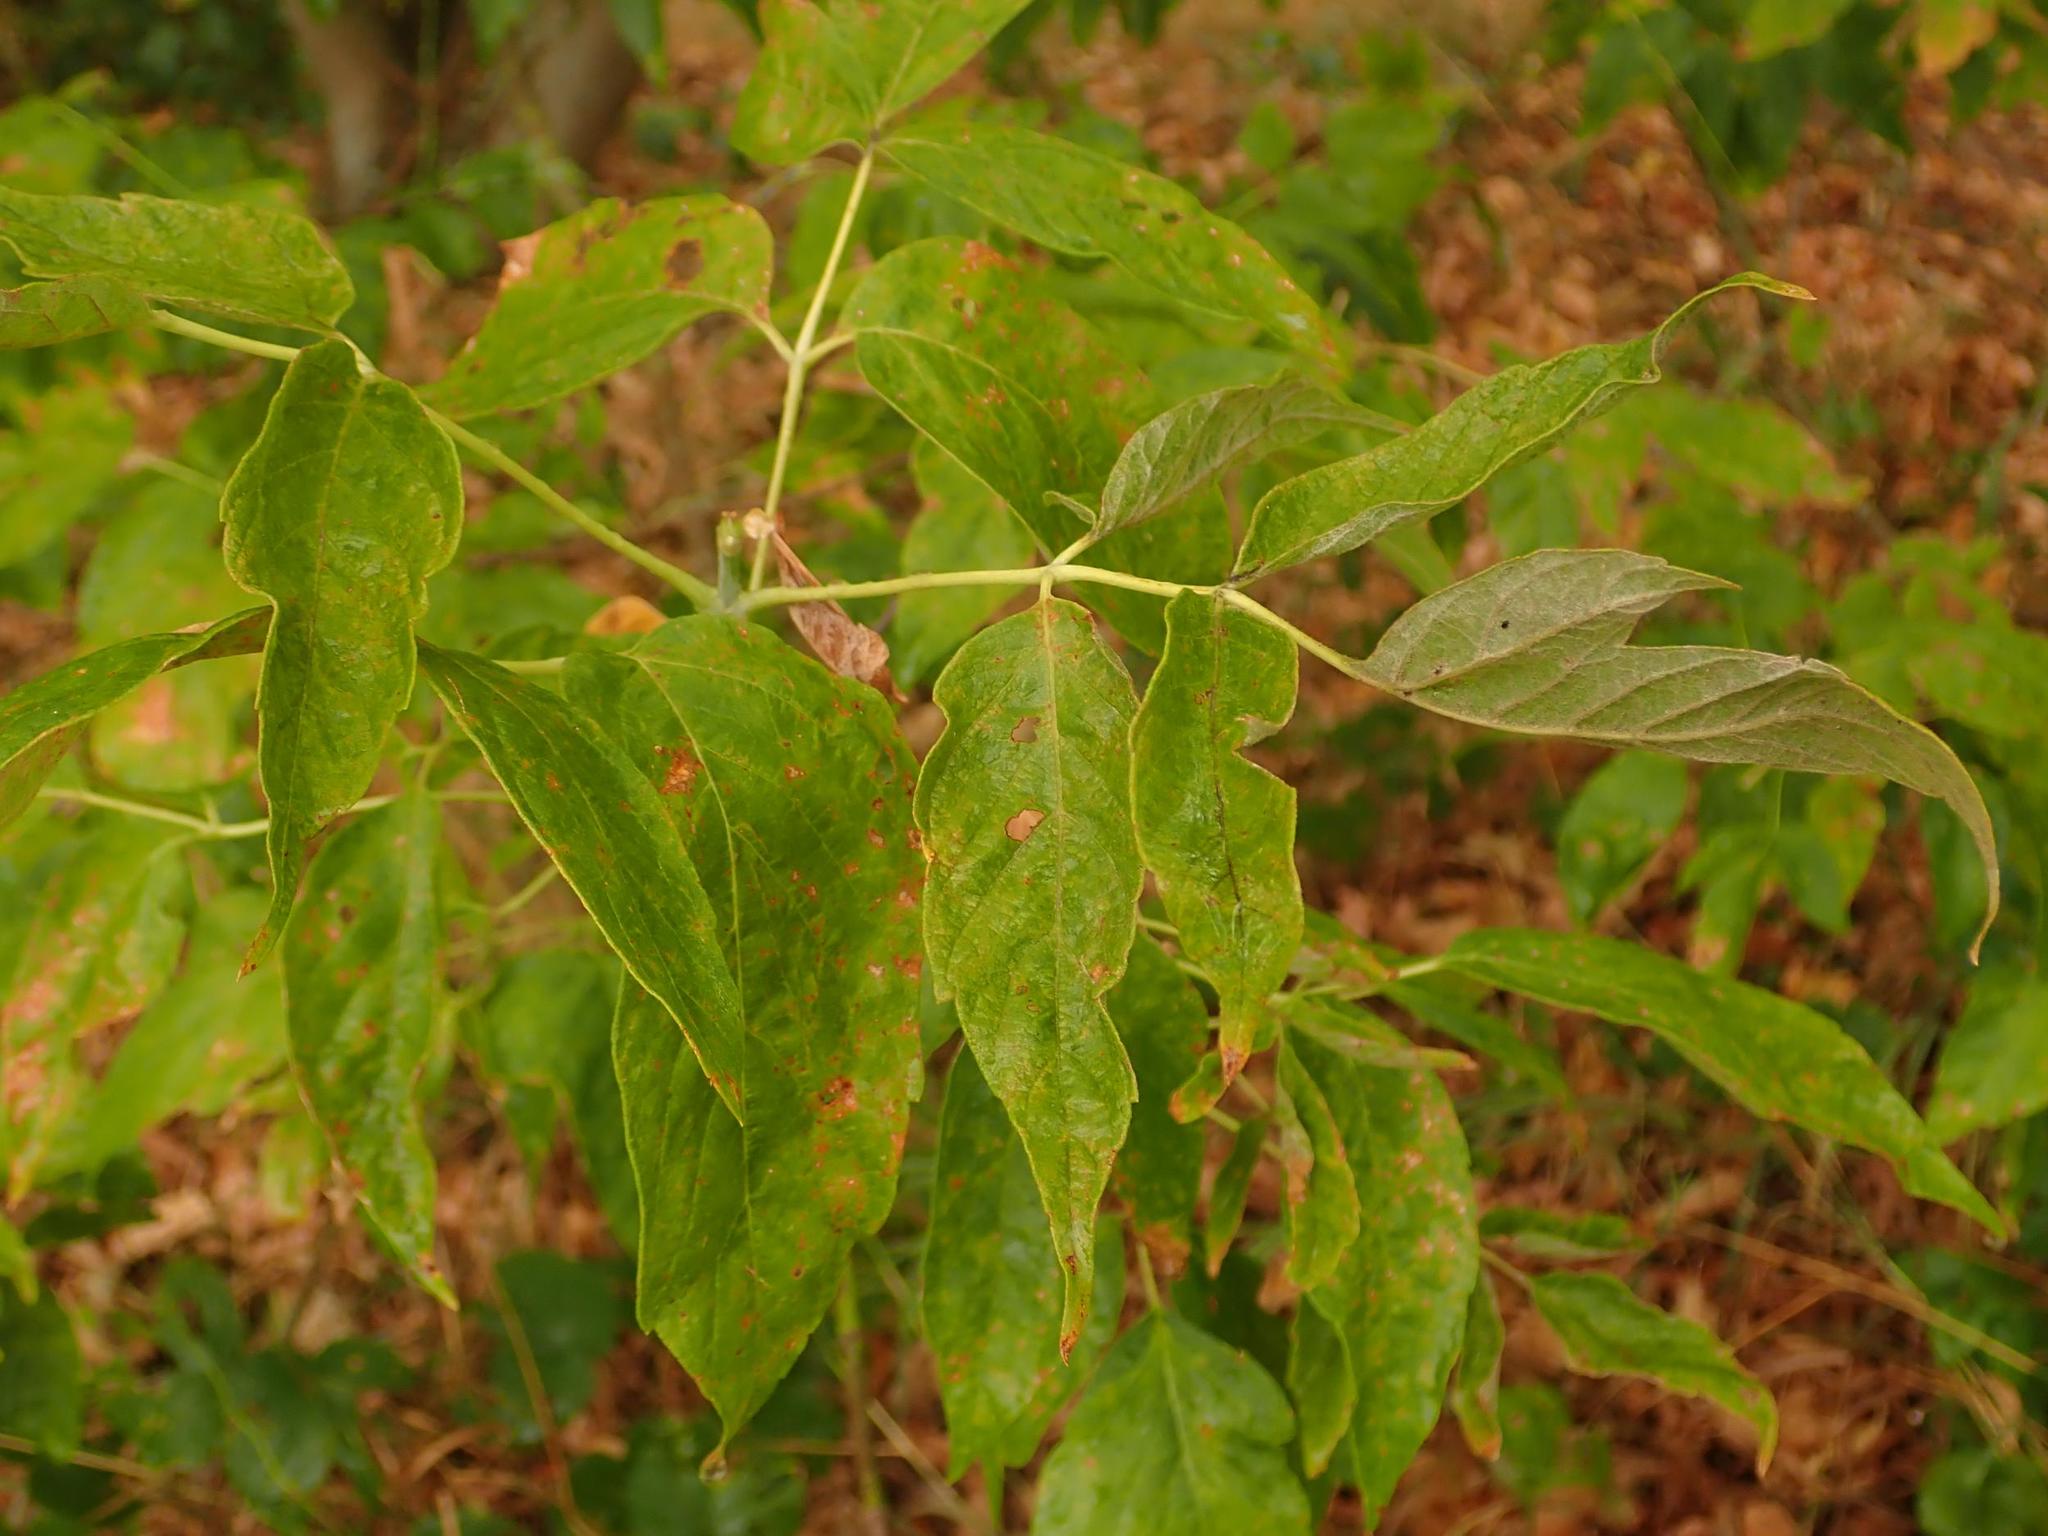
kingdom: Plantae
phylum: Tracheophyta
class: Magnoliopsida
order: Sapindales
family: Sapindaceae
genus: Acer
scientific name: Acer negundo
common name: Ashleaf maple
